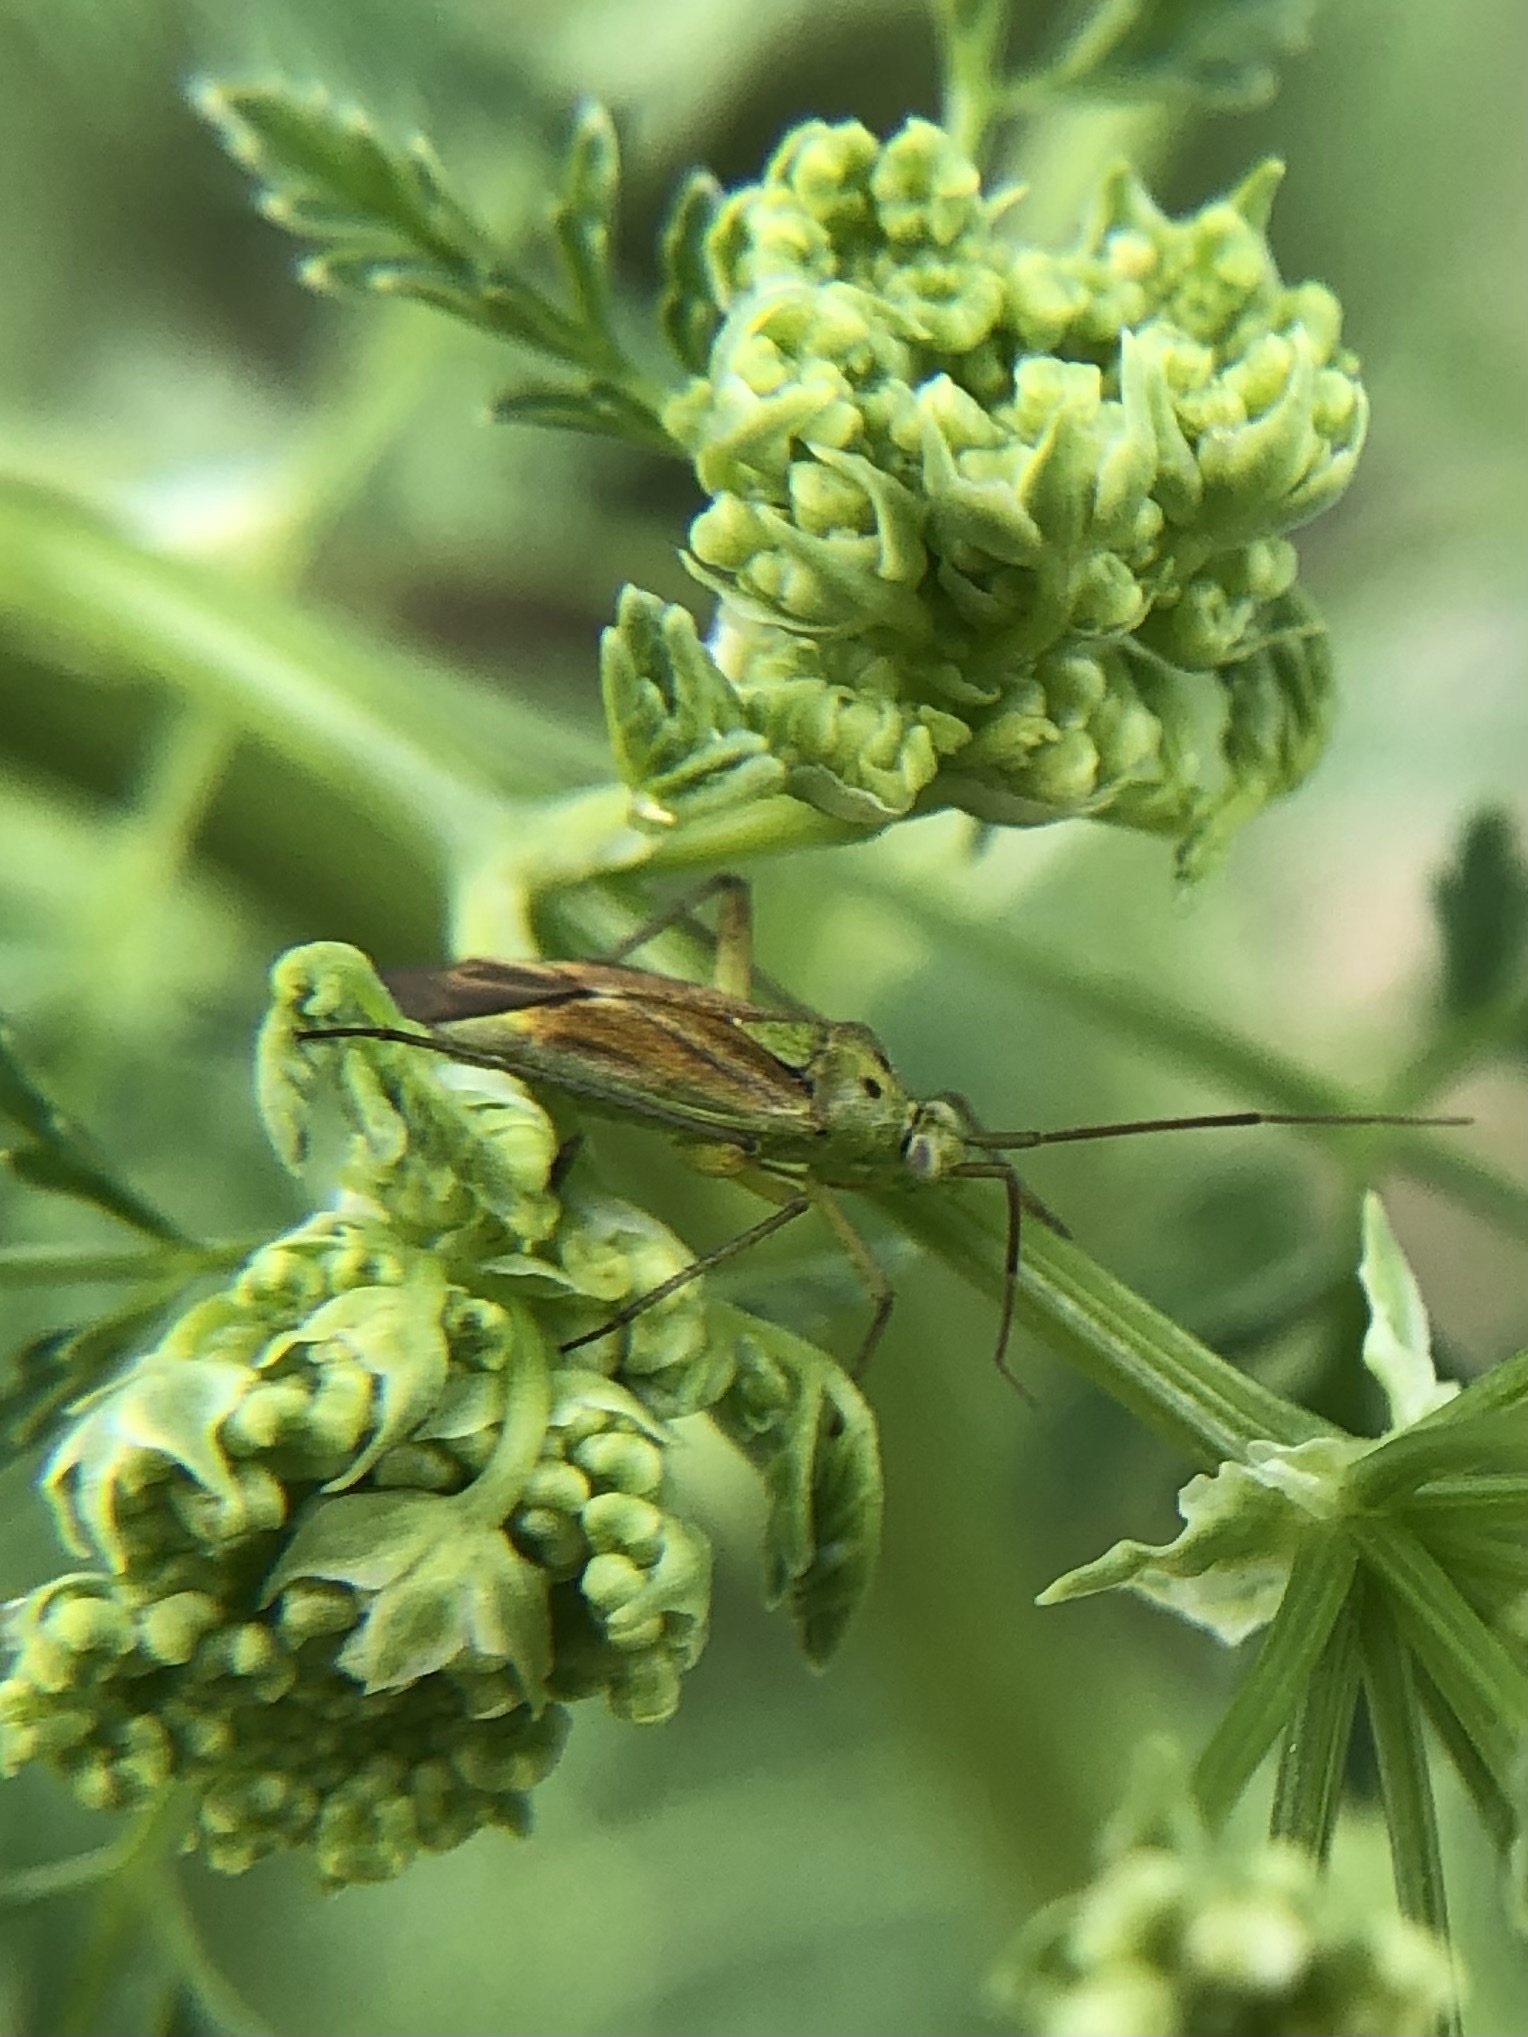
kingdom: Animalia
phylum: Arthropoda
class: Insecta
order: Hemiptera
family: Miridae
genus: Closterotomus
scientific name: Closterotomus norvegicus
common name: Plant bug
